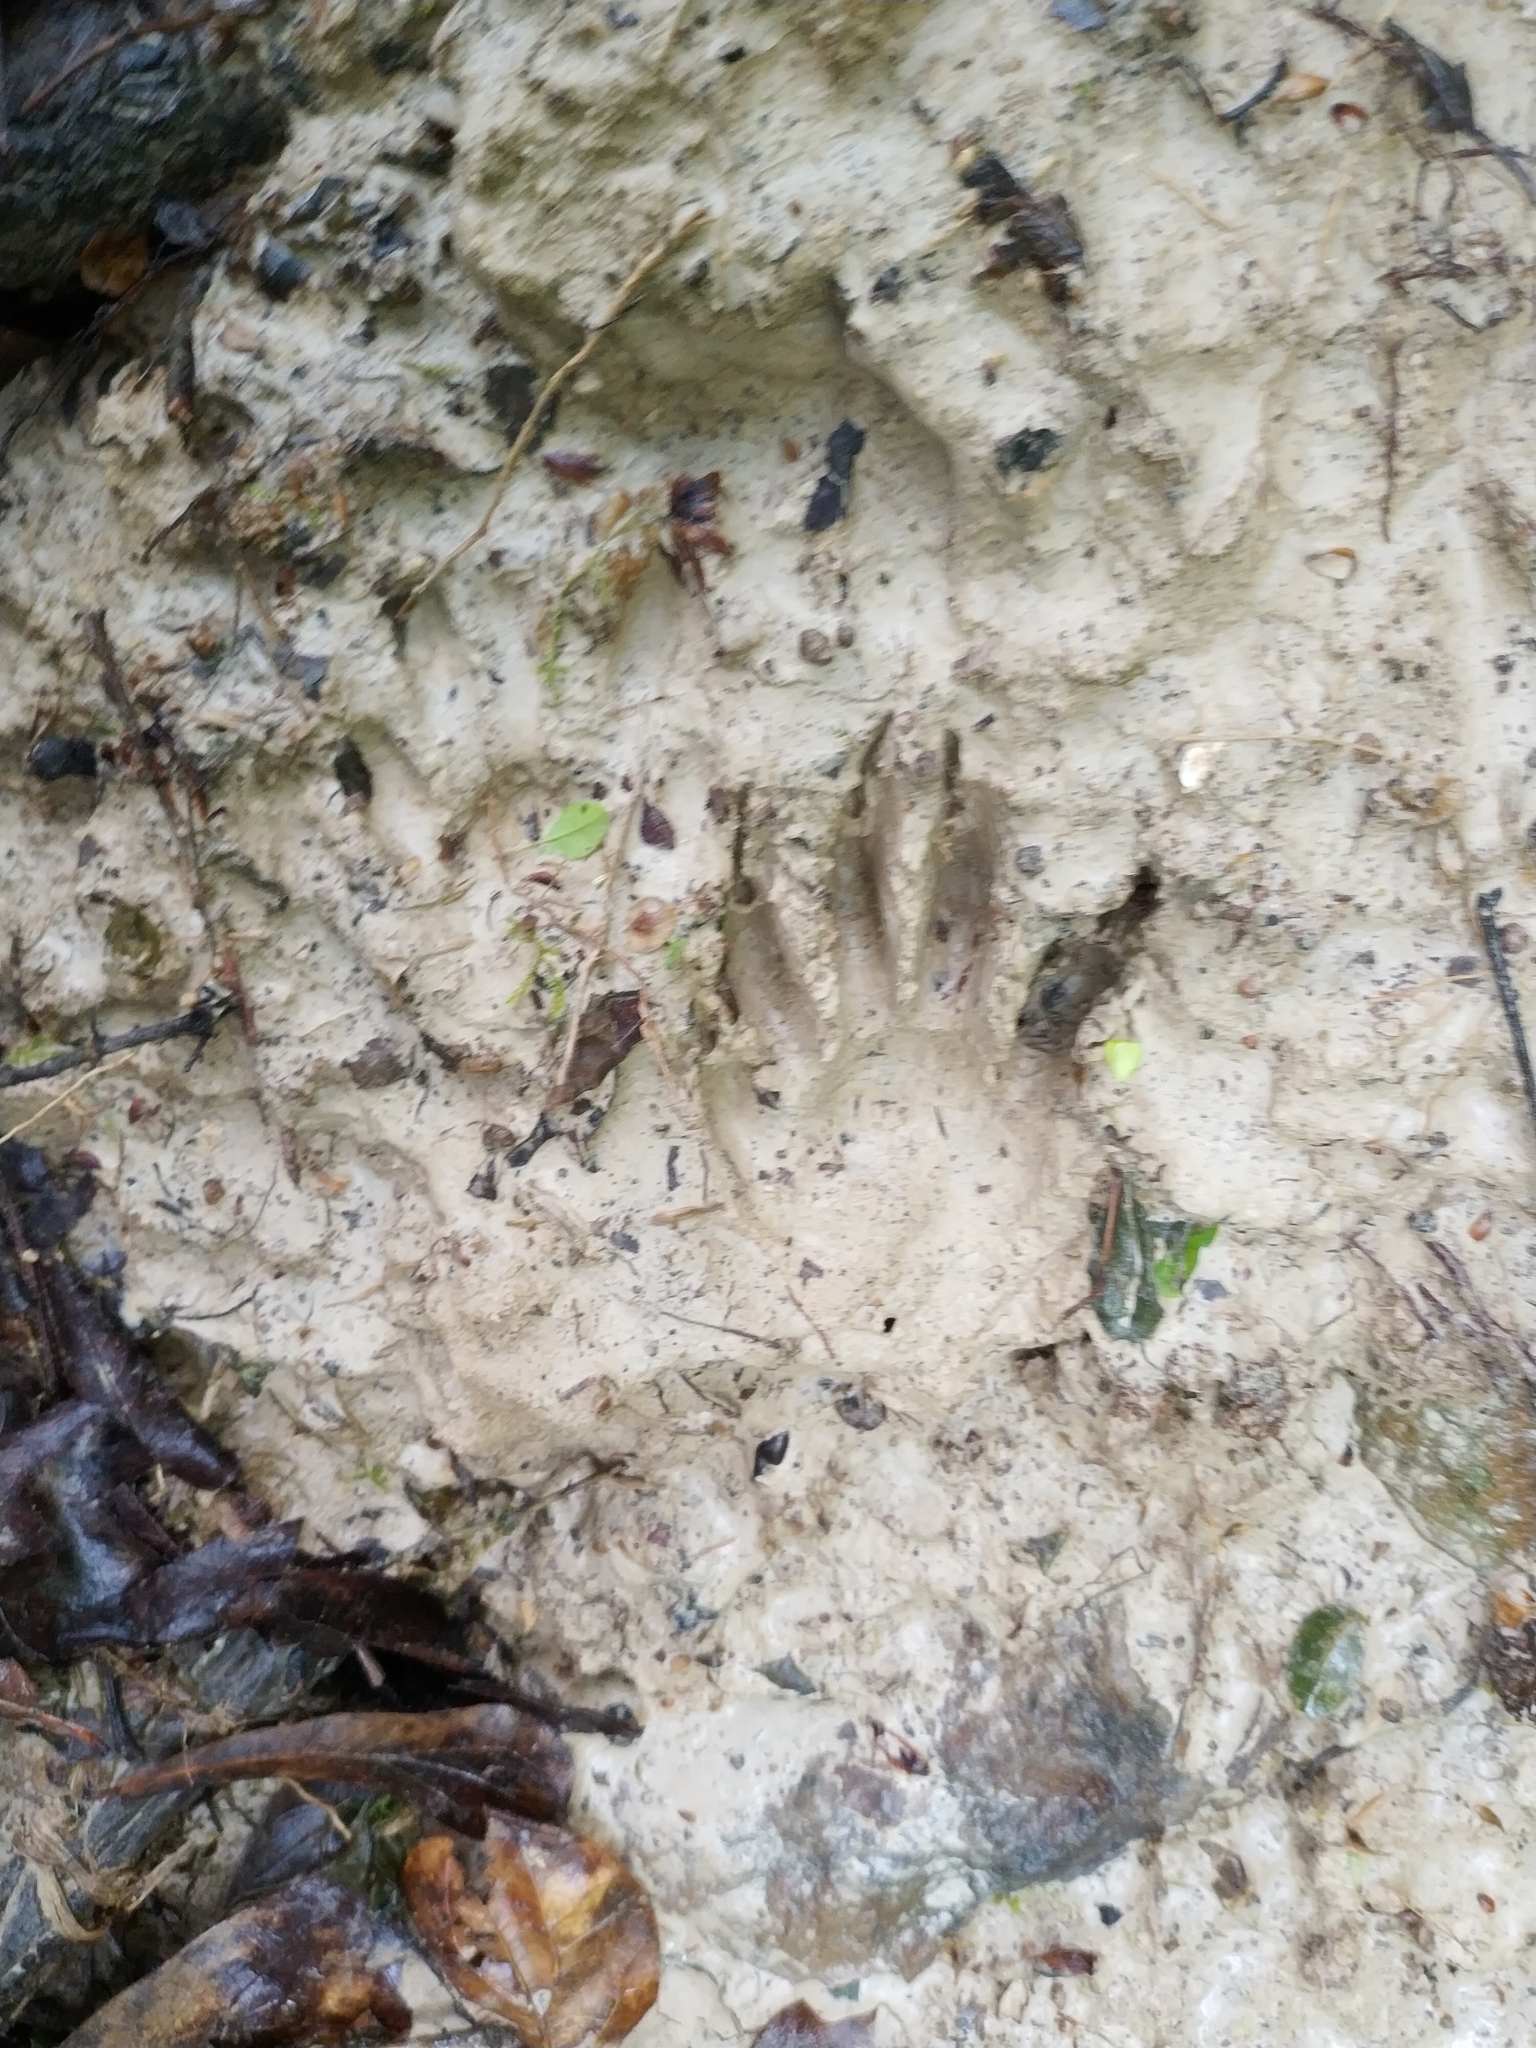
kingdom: Animalia
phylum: Chordata
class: Mammalia
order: Carnivora
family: Procyonidae
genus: Procyon
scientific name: Procyon lotor
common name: Raccoon
